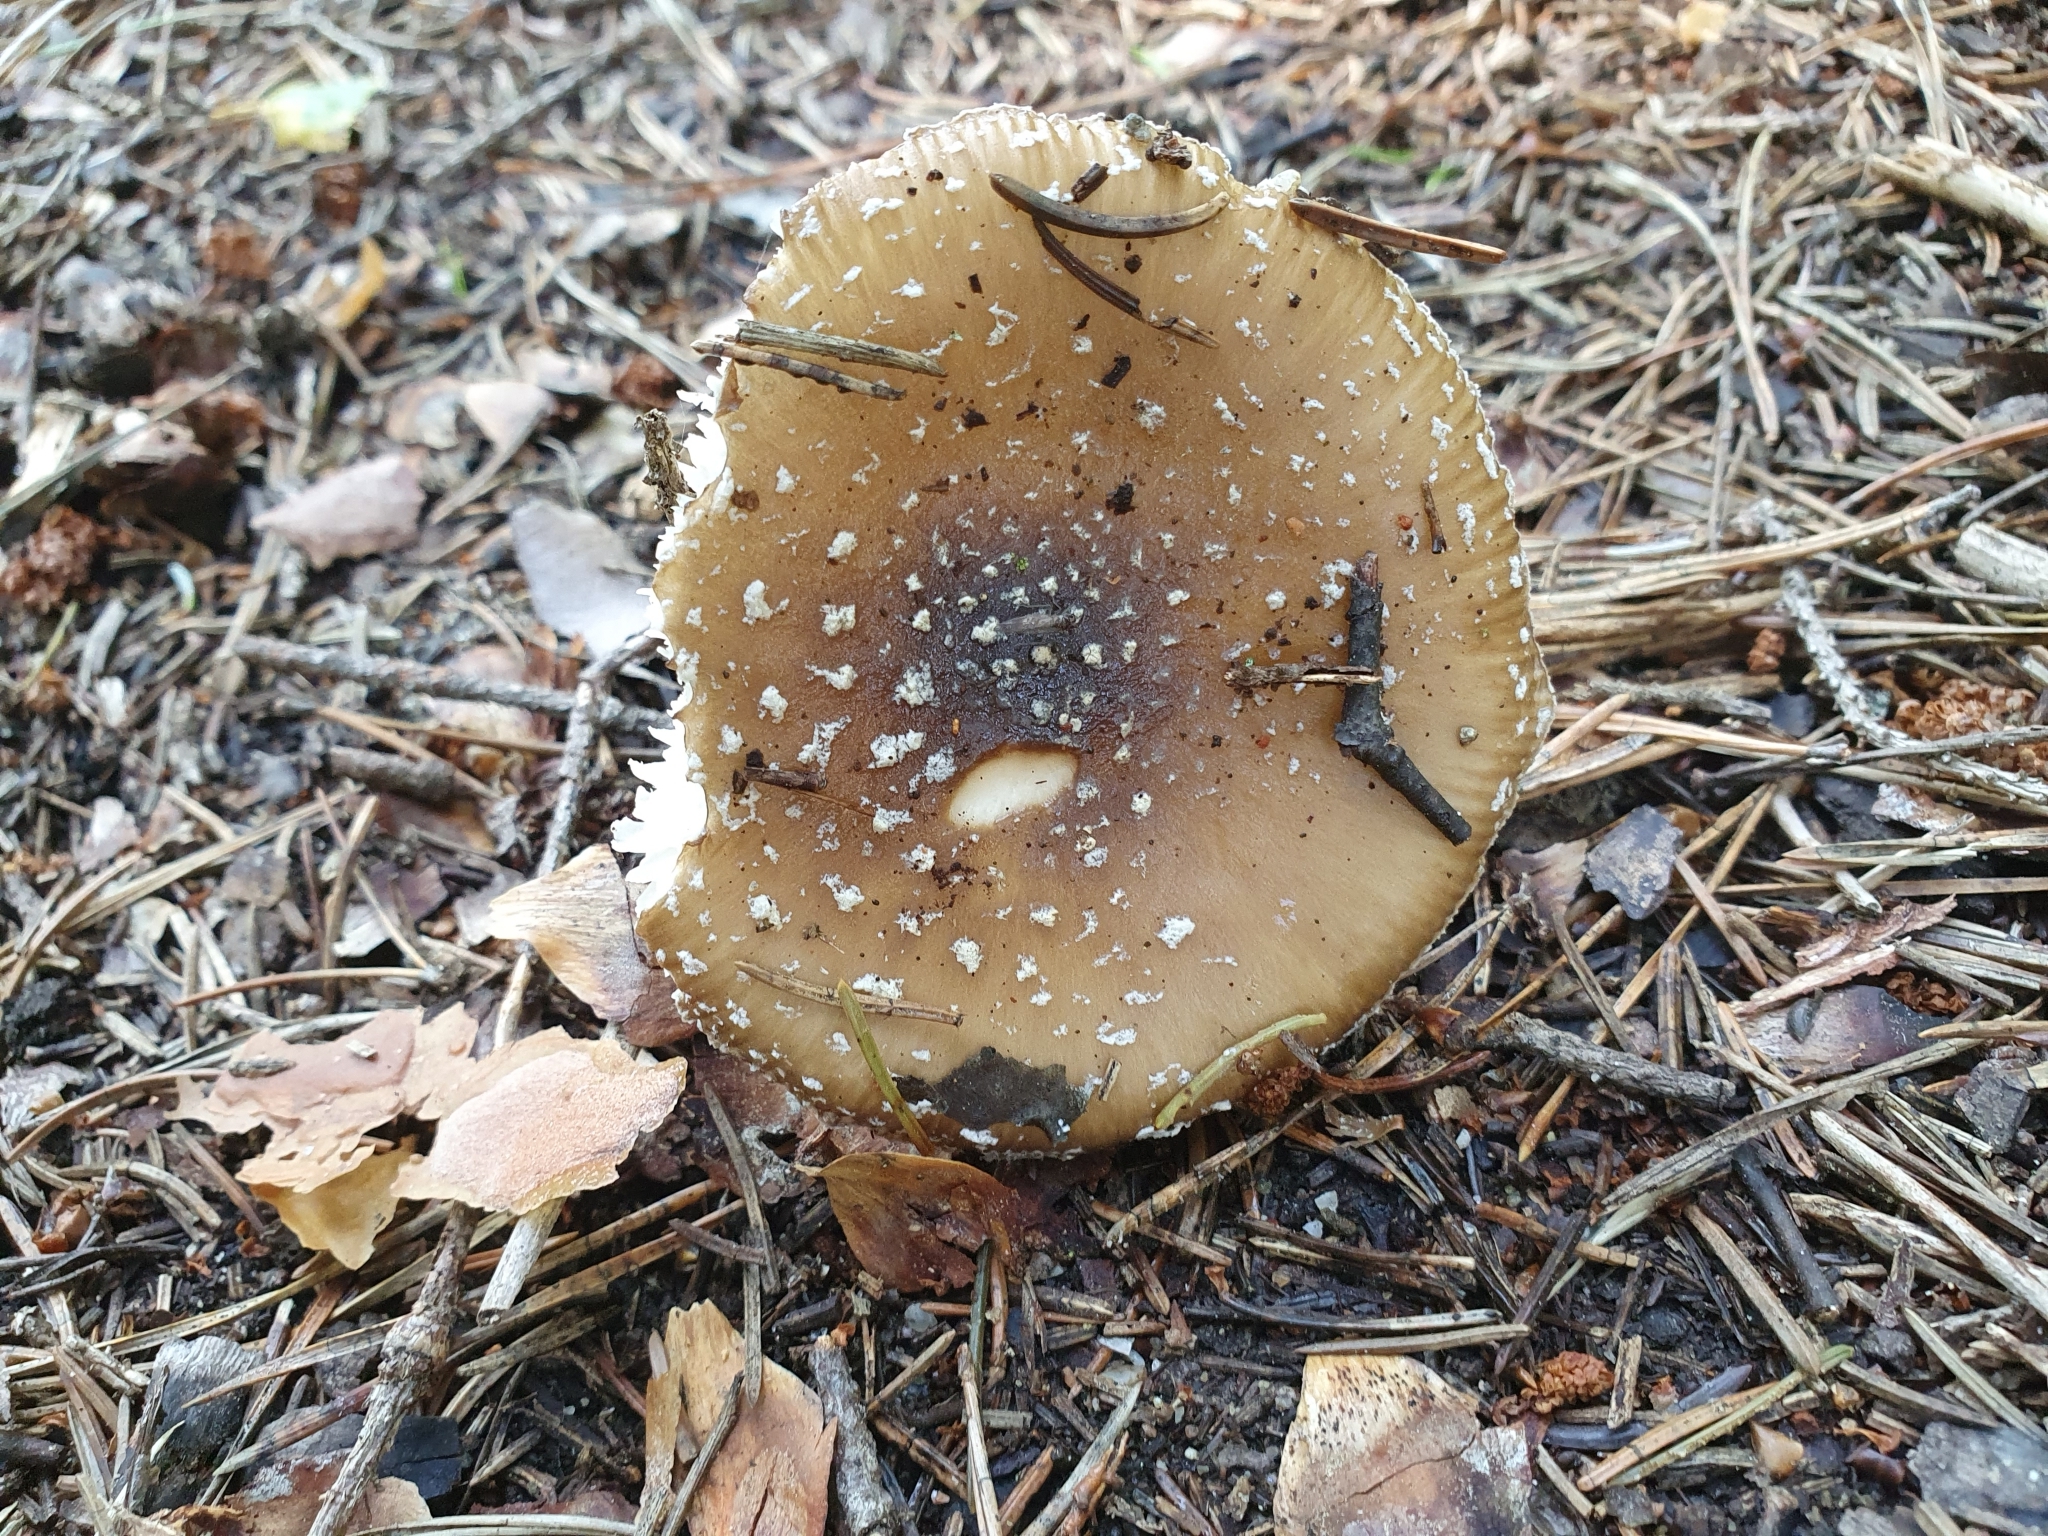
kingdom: Fungi
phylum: Basidiomycota
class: Agaricomycetes
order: Agaricales
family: Amanitaceae
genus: Amanita
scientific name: Amanita pantherina
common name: Panthercap
